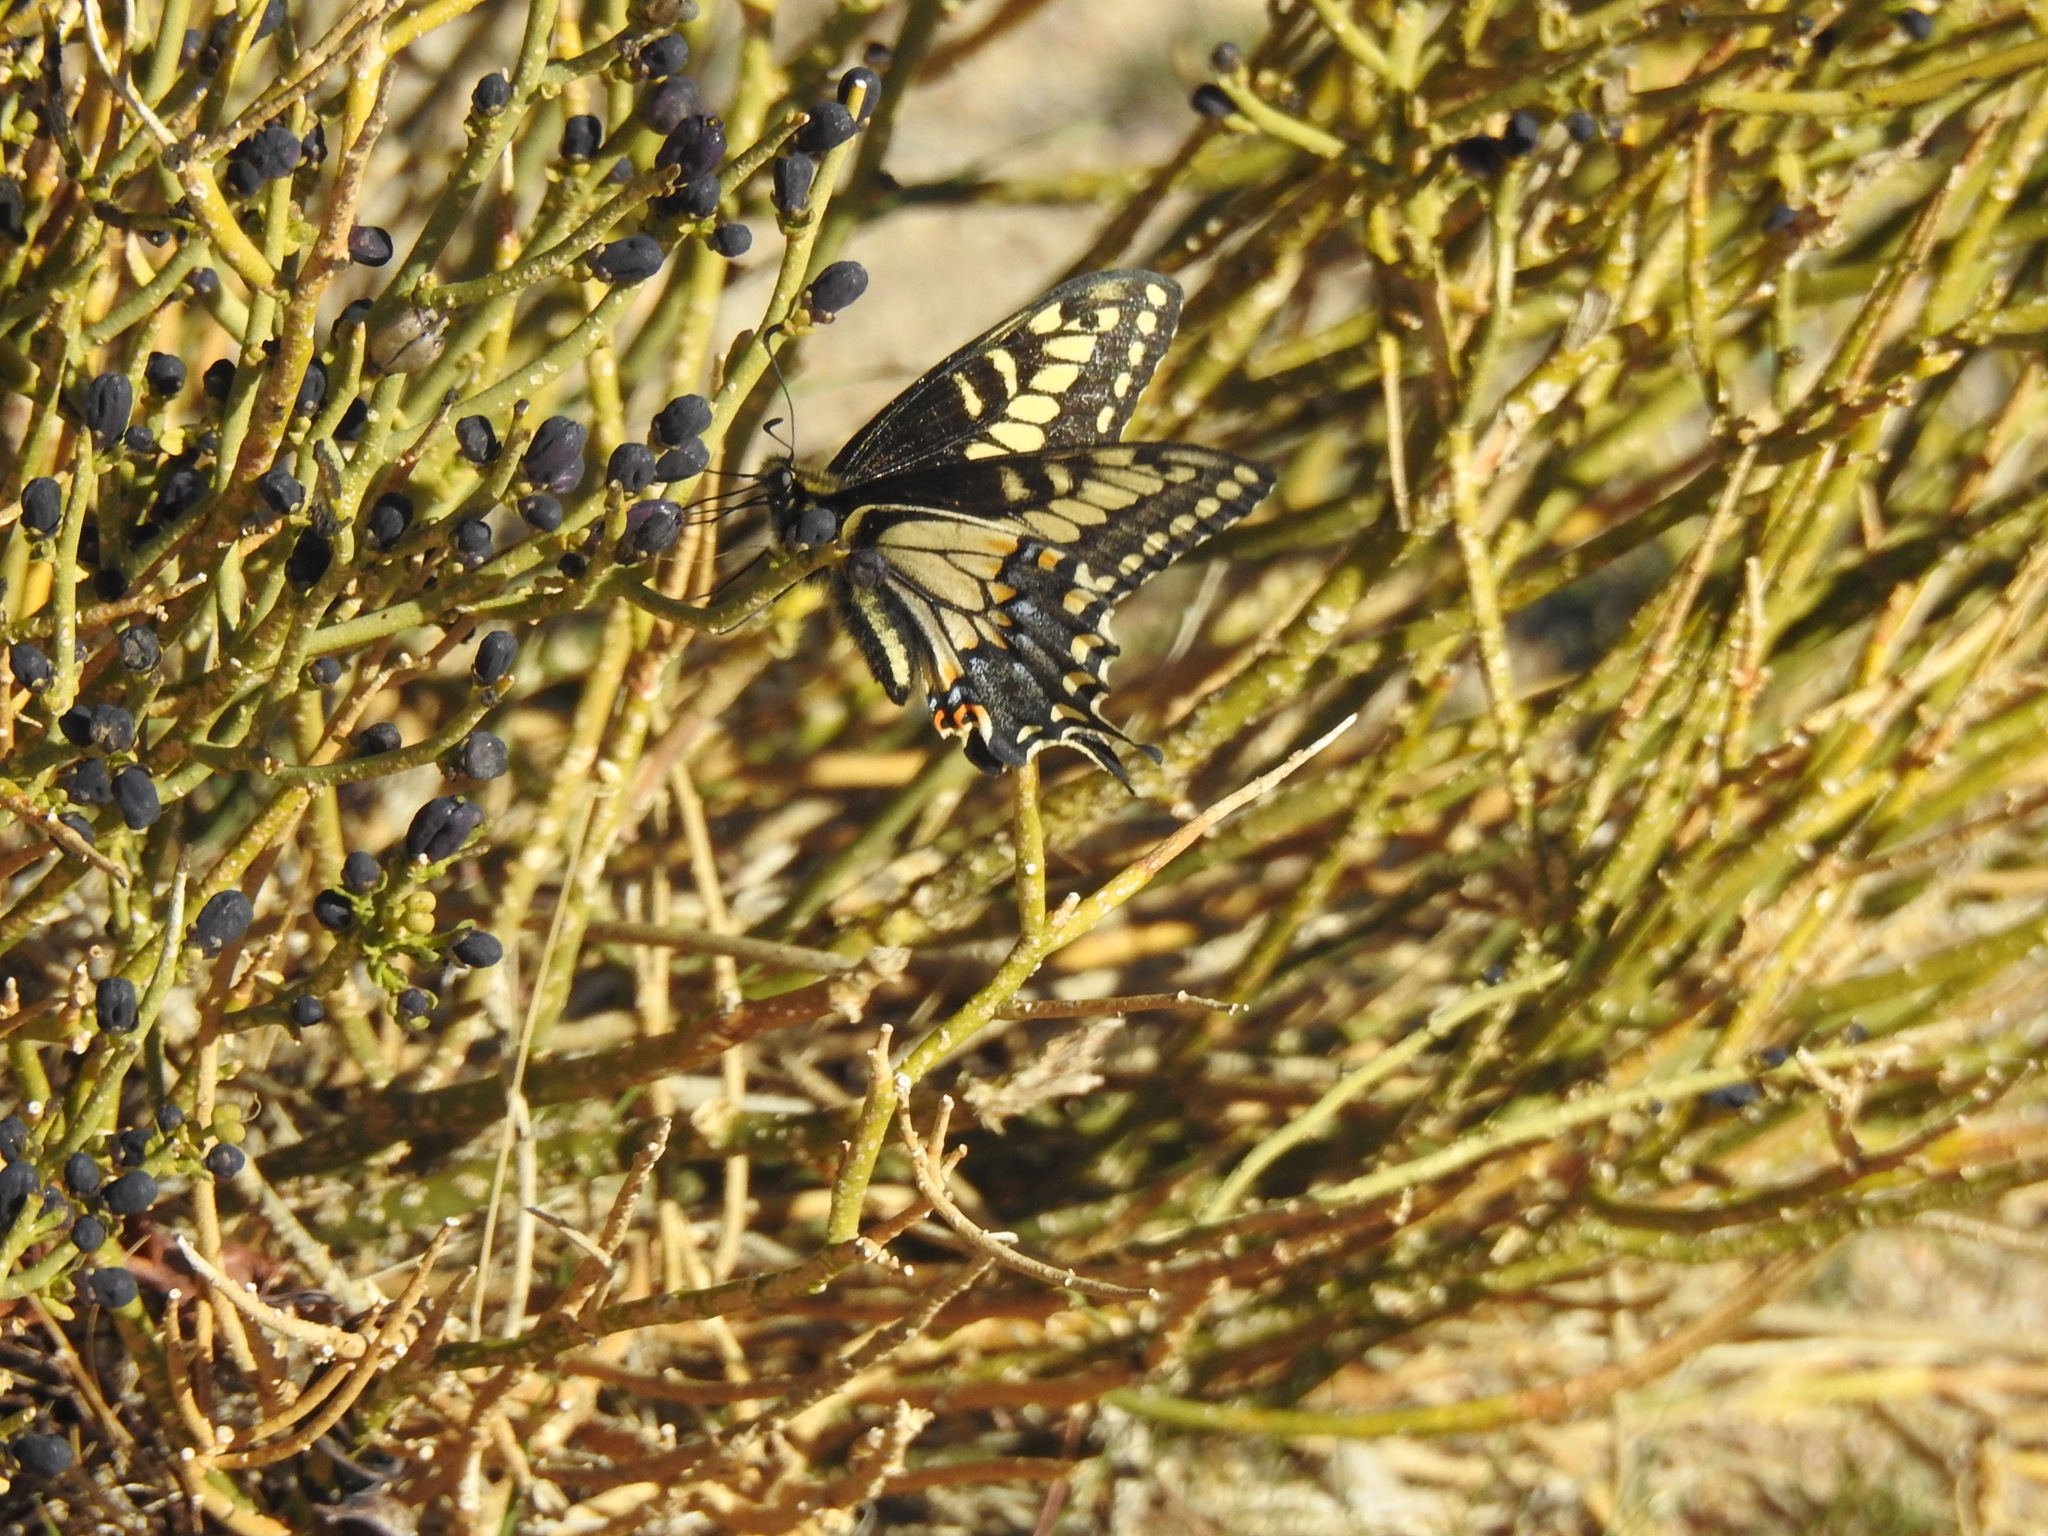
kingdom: Animalia
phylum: Arthropoda
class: Insecta
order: Lepidoptera
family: Papilionidae
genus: Papilio
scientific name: Papilio polyxenes
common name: Black swallowtail
